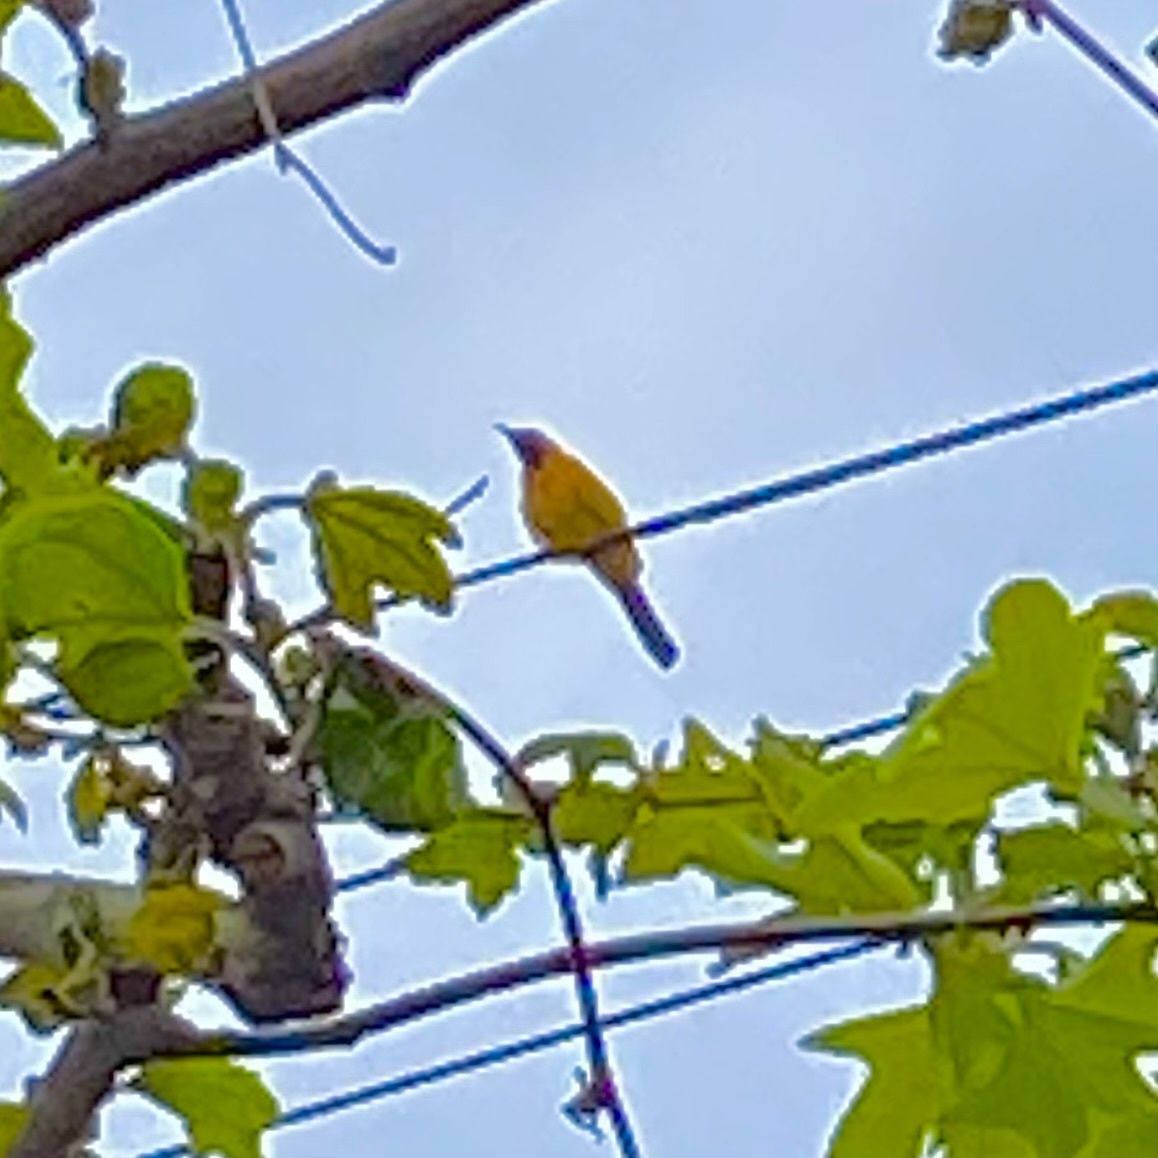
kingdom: Animalia
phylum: Chordata
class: Aves
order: Passeriformes
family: Icteridae
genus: Icterus
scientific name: Icterus cucullatus
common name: Hooded oriole
